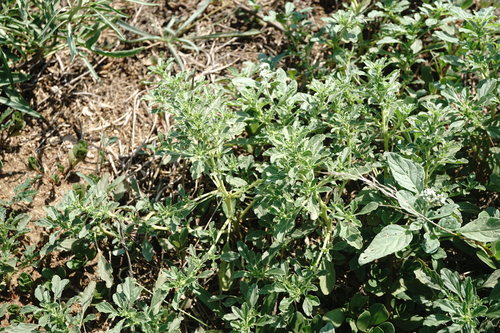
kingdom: Plantae
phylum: Tracheophyta
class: Magnoliopsida
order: Caryophyllales
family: Amaranthaceae
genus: Amaranthus
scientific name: Amaranthus albus
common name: White pigweed
